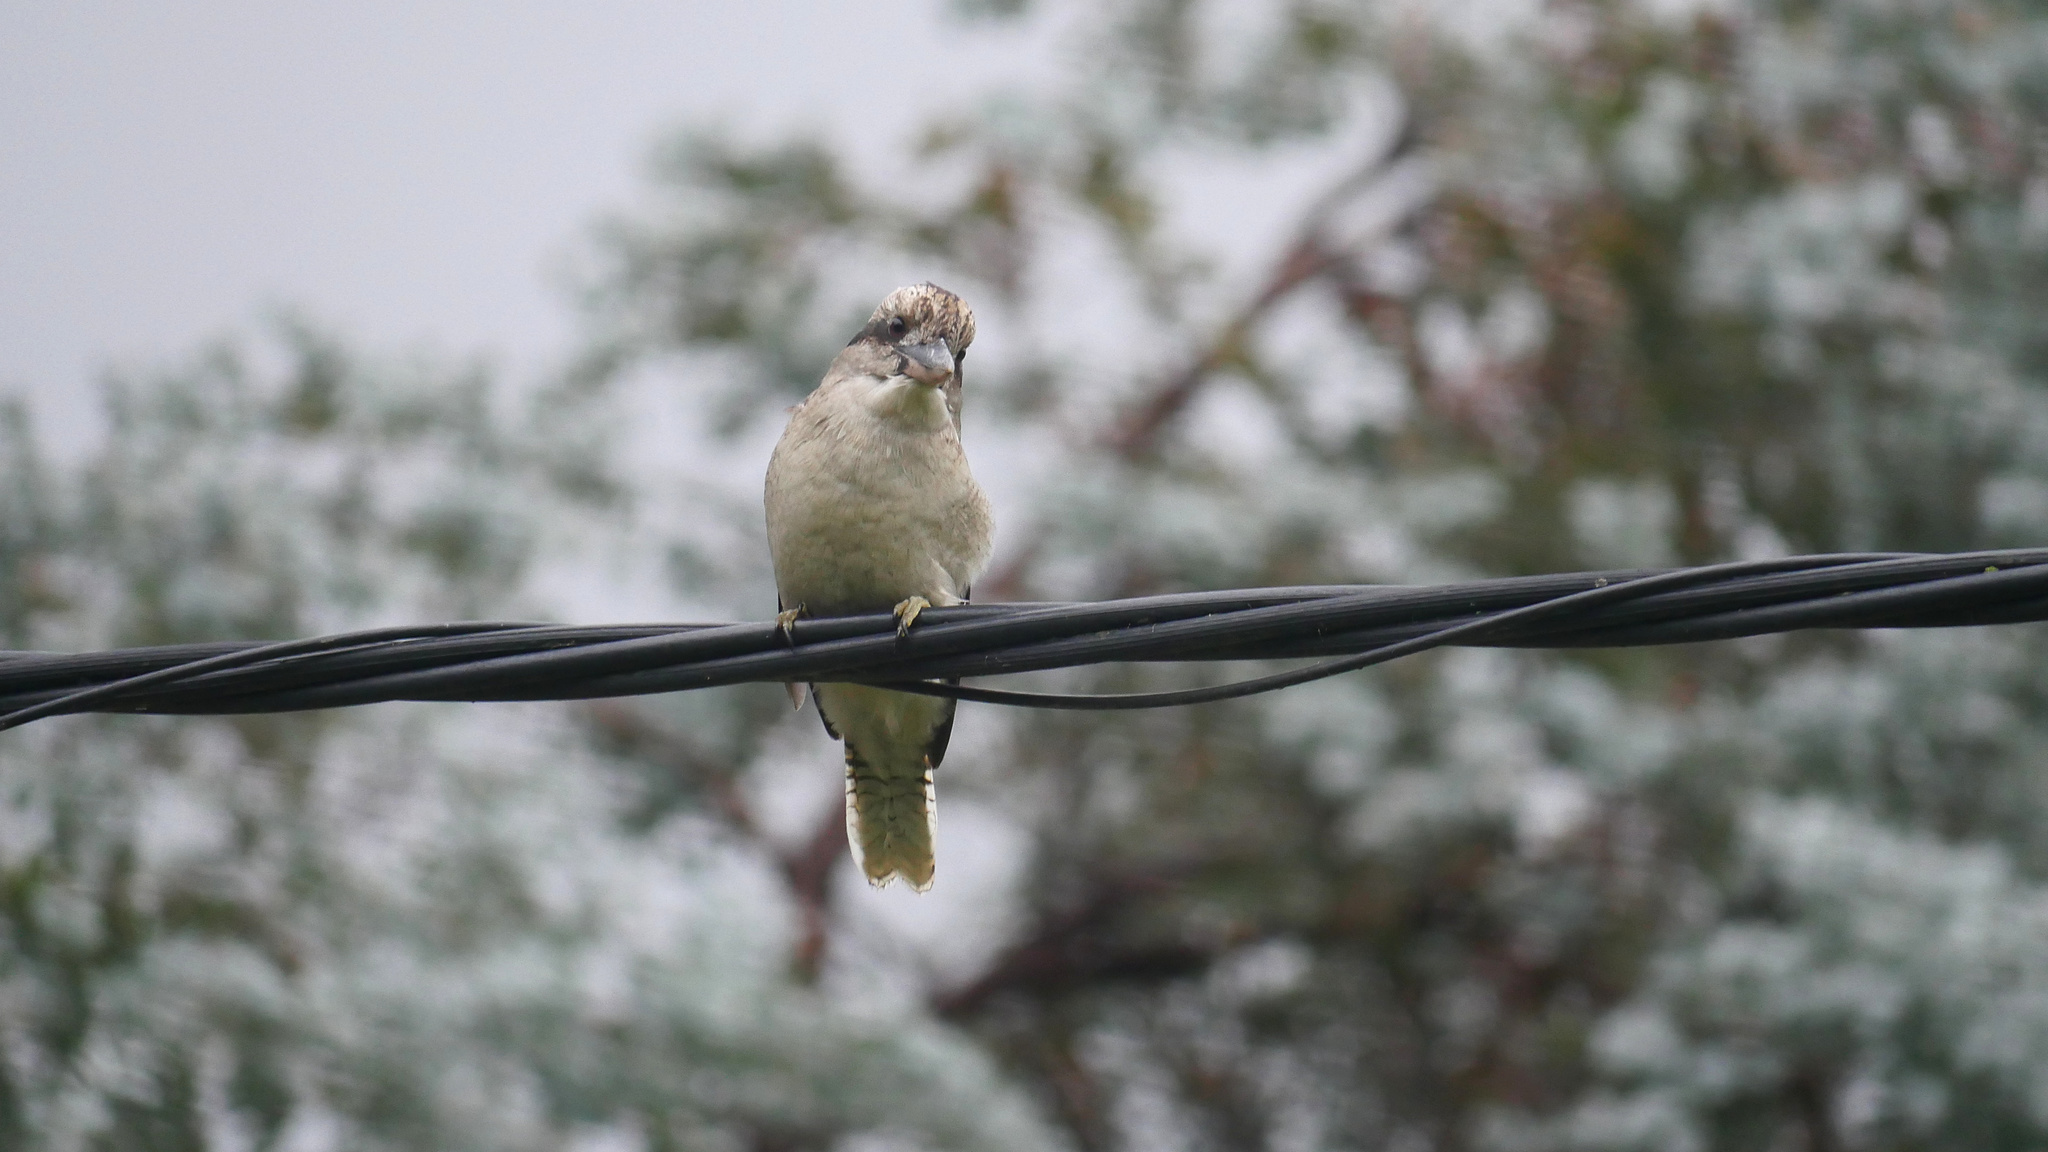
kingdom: Animalia
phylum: Chordata
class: Aves
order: Coraciiformes
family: Alcedinidae
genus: Dacelo
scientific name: Dacelo novaeguineae
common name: Laughing kookaburra
